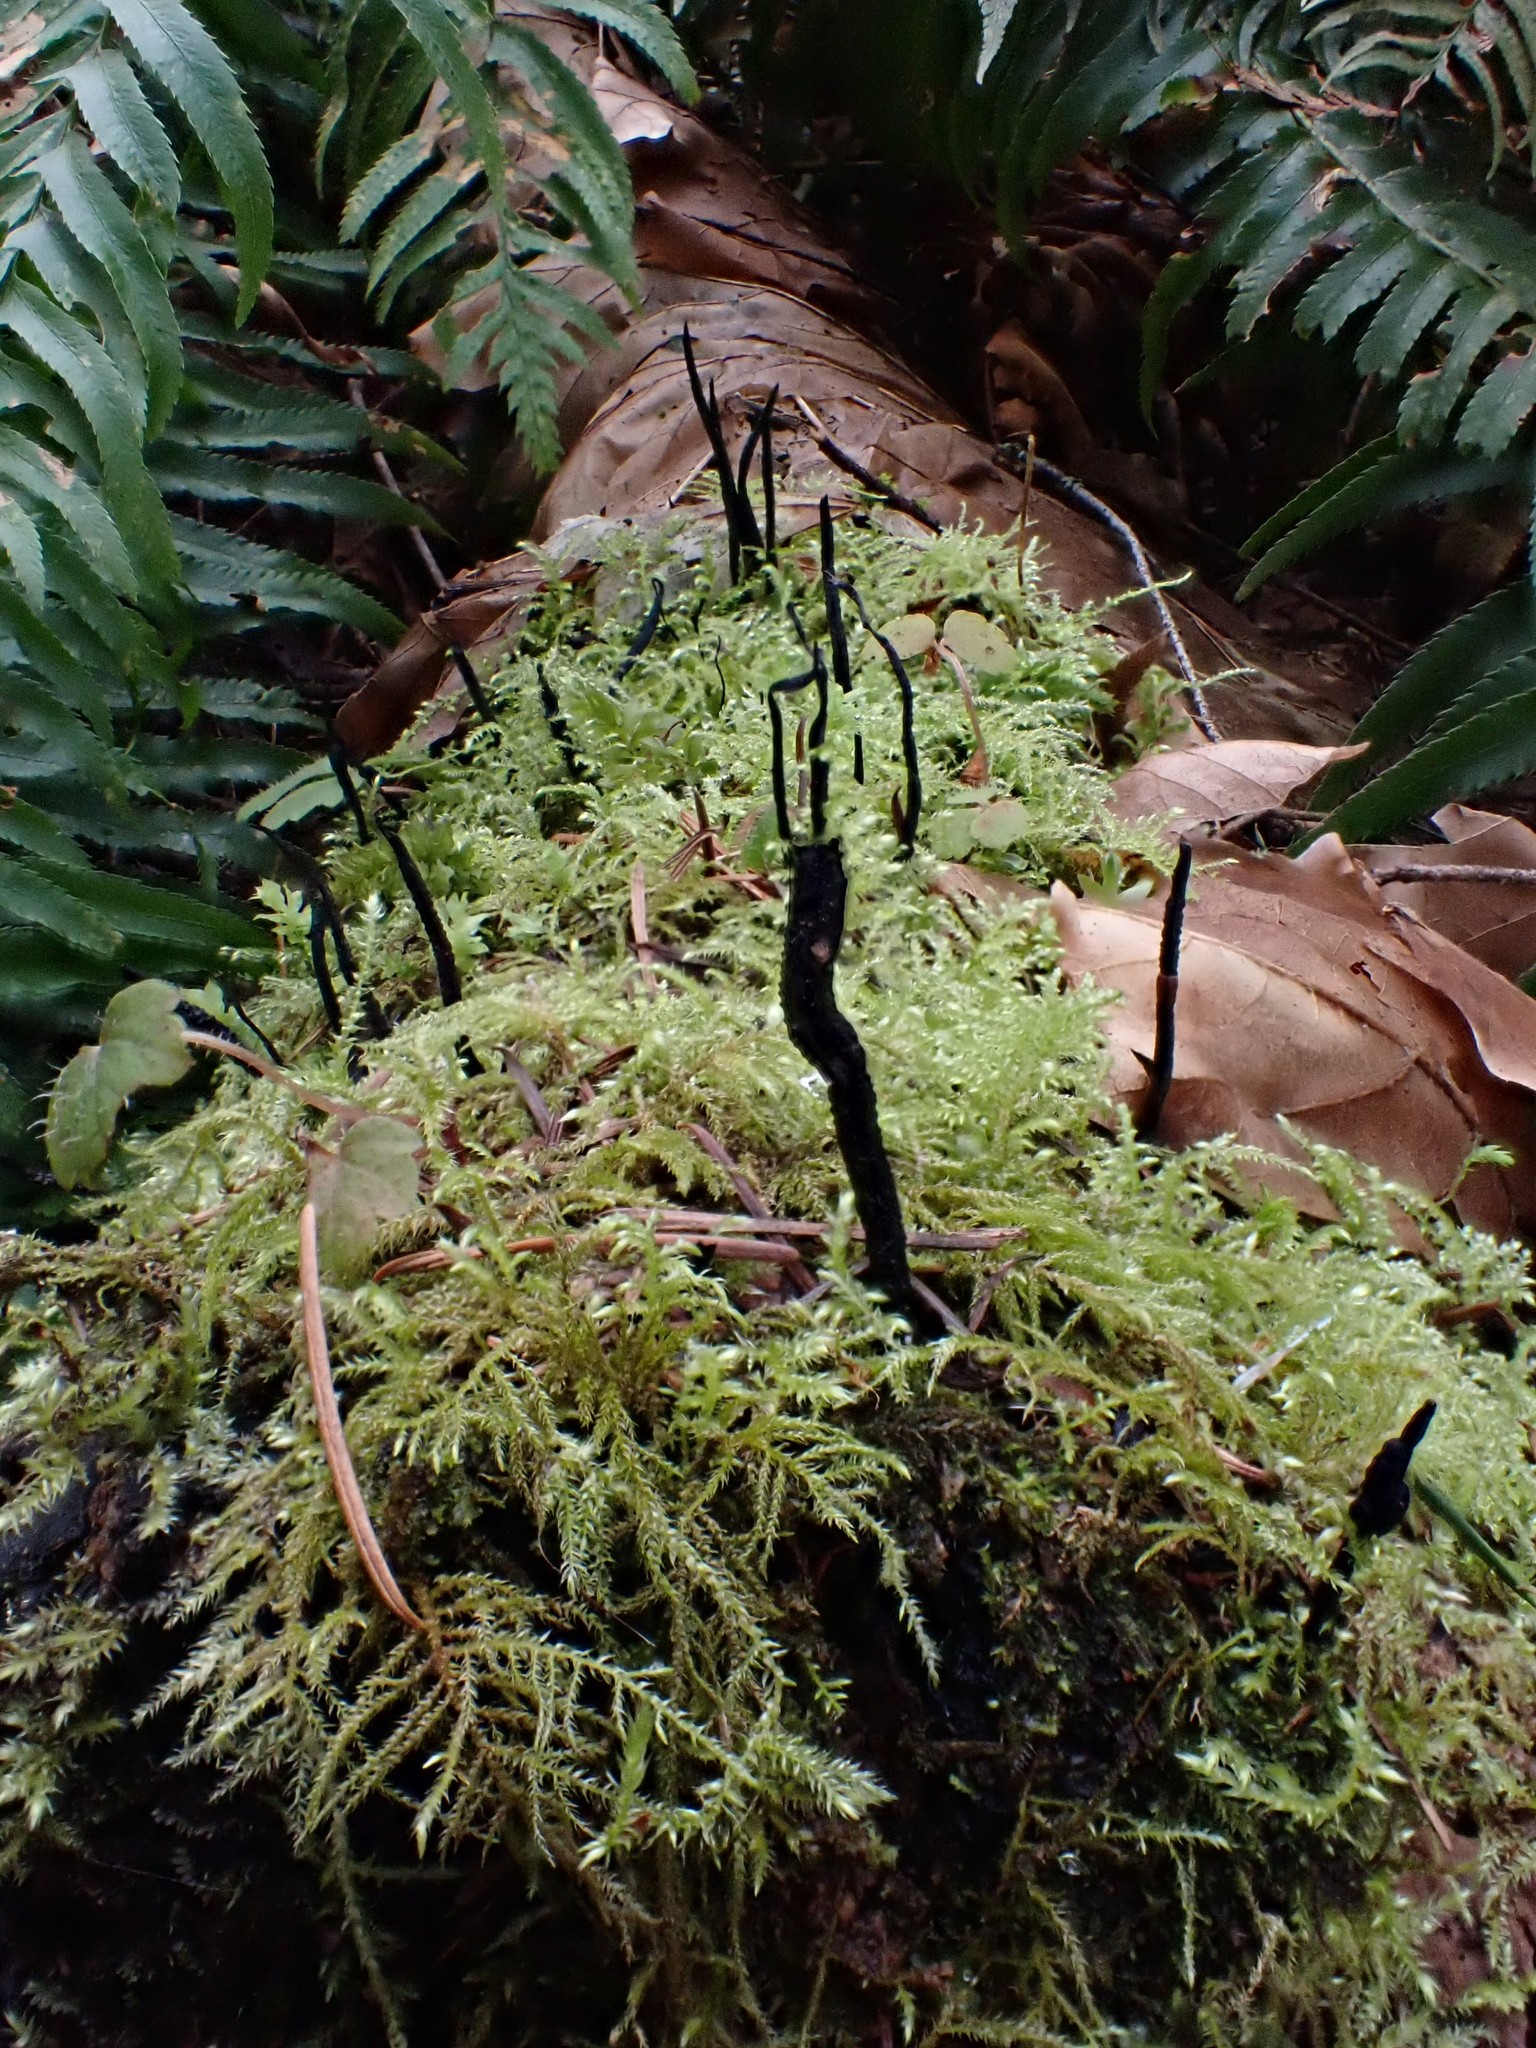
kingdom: Fungi
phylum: Ascomycota
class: Sordariomycetes
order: Xylariales
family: Xylariaceae
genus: Xylaria
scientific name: Xylaria hypoxylon
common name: Candle-snuff fungus
